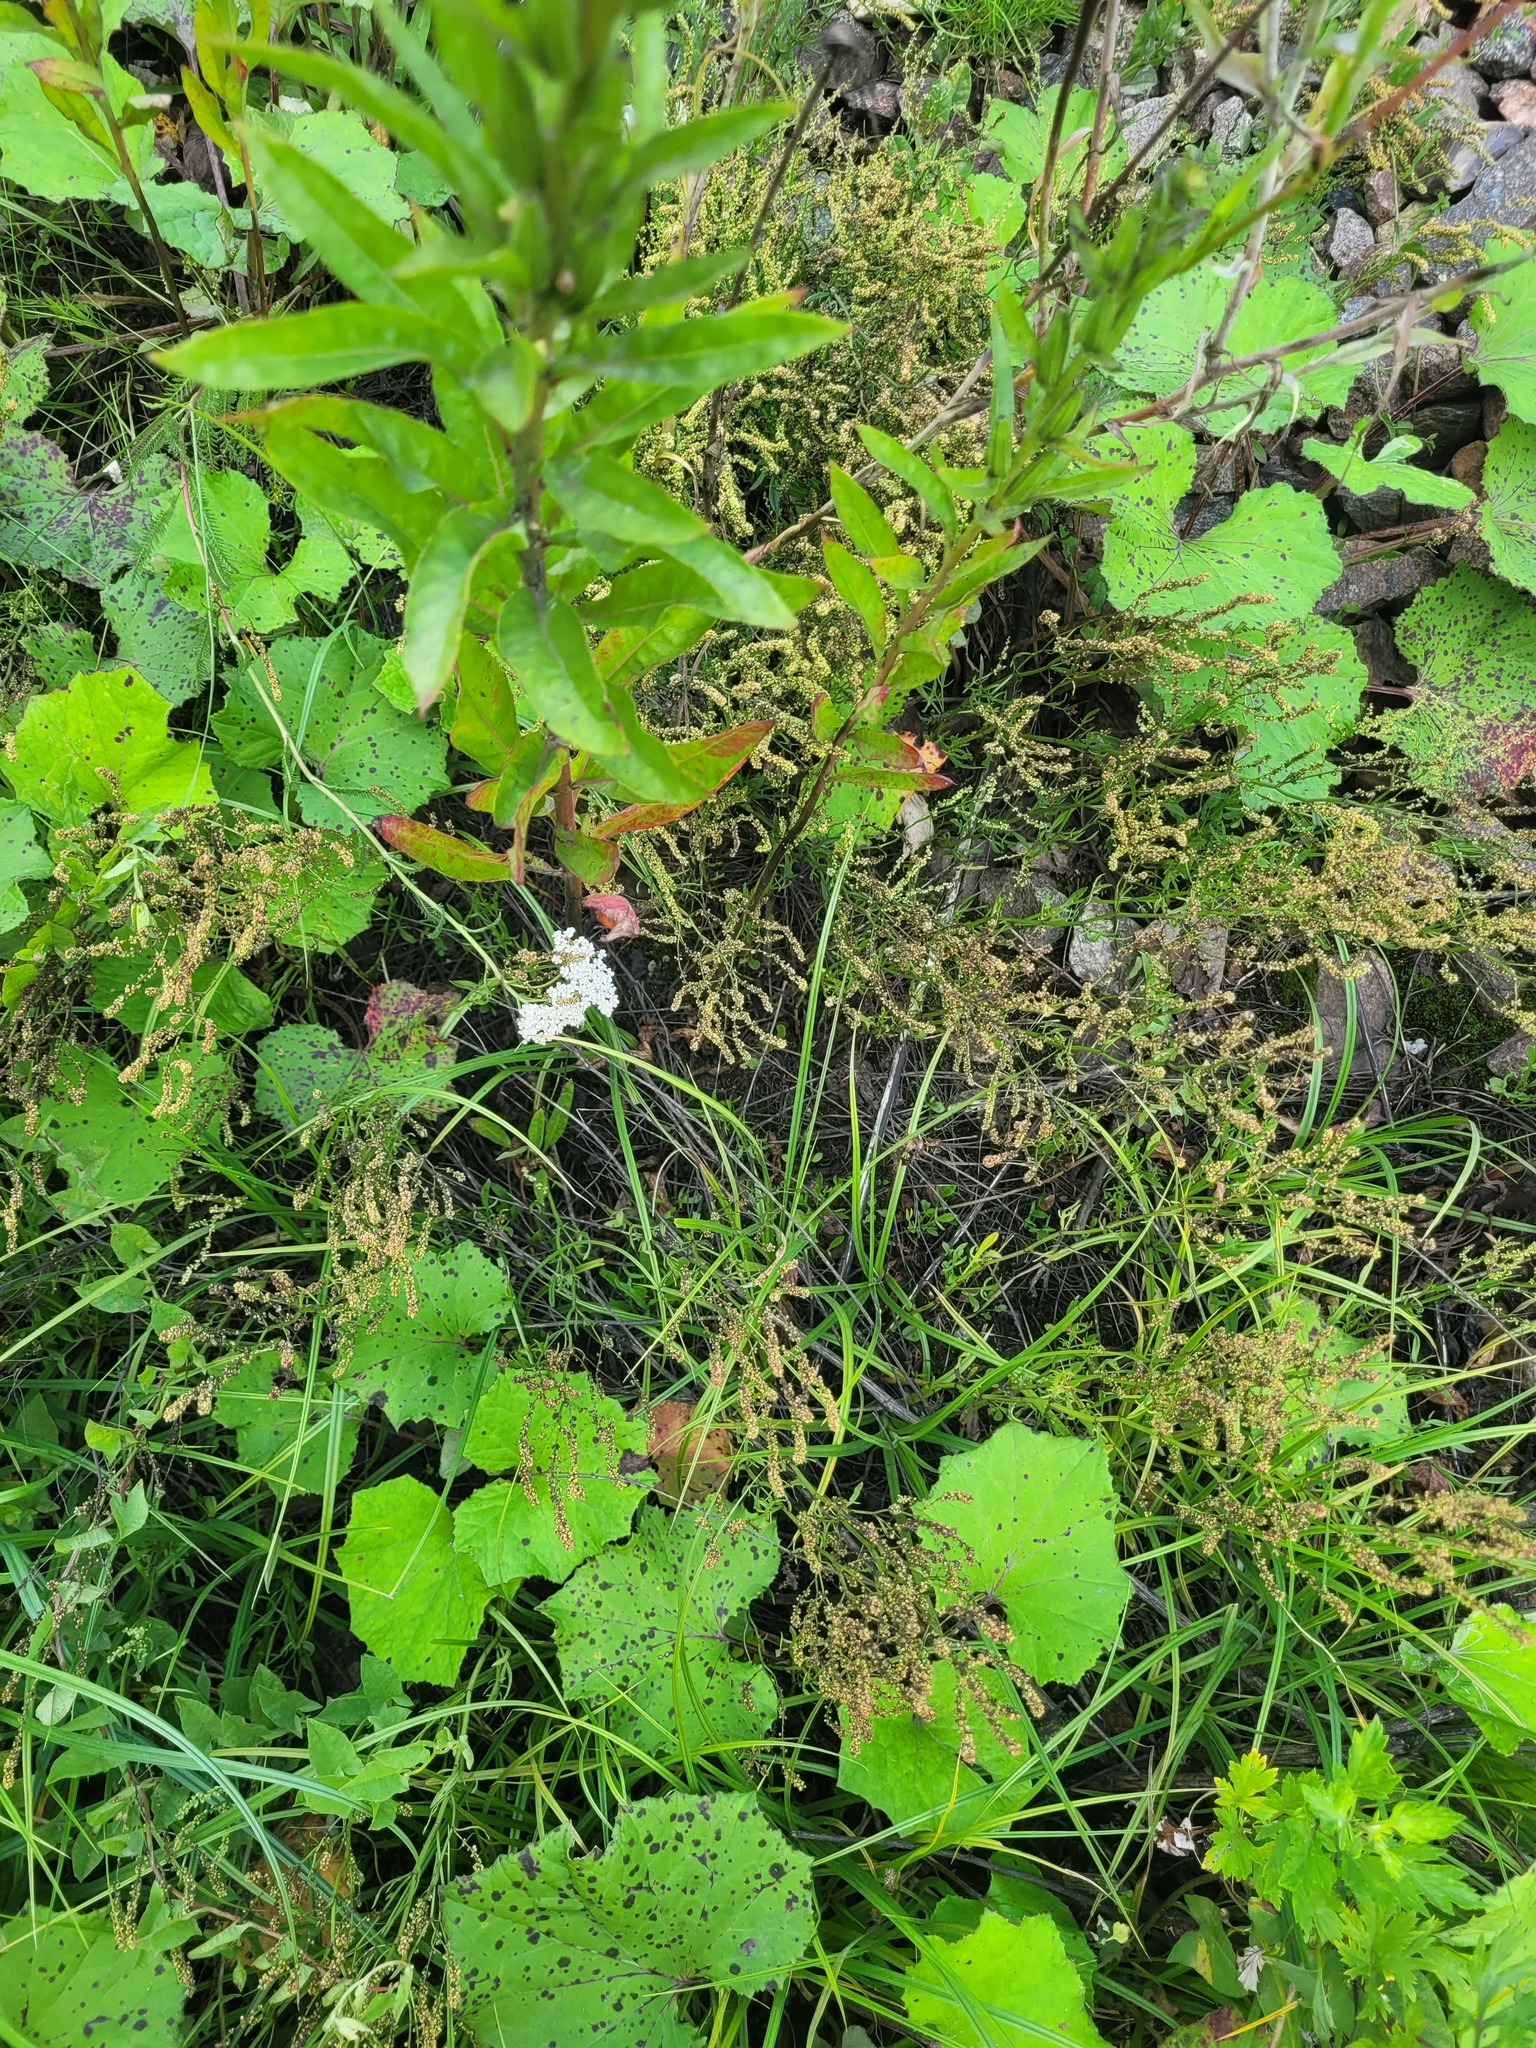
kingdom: Plantae
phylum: Tracheophyta
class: Magnoliopsida
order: Caryophyllales
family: Polygonaceae
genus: Rumex
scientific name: Rumex acetosella
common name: Common sheep sorrel
